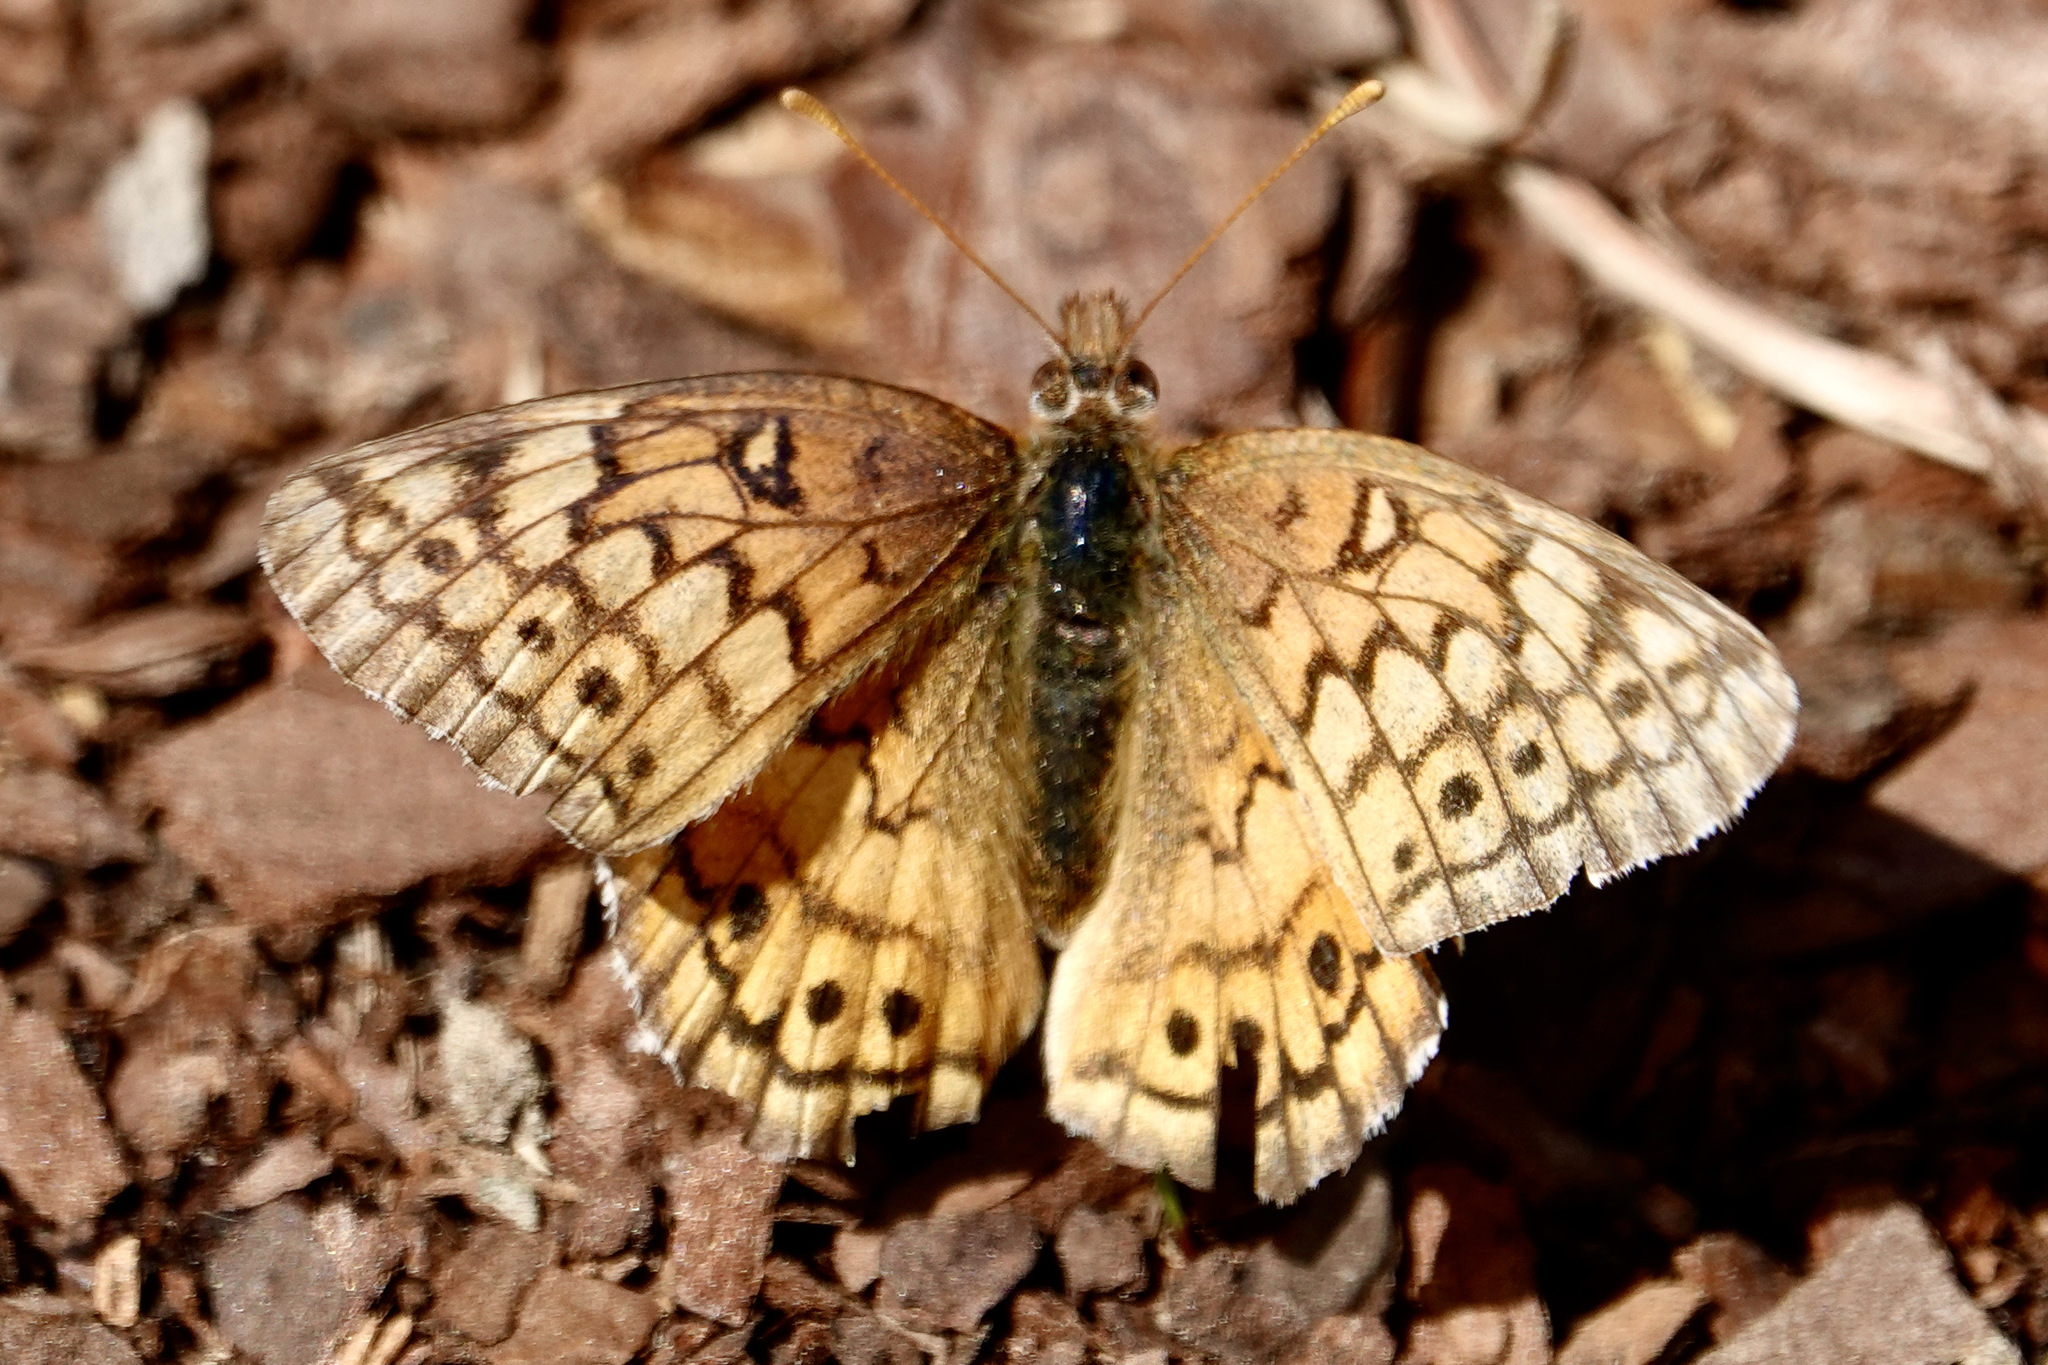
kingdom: Animalia
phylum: Arthropoda
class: Insecta
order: Lepidoptera
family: Nymphalidae
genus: Euptoieta
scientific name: Euptoieta claudia
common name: Variegated fritillary
